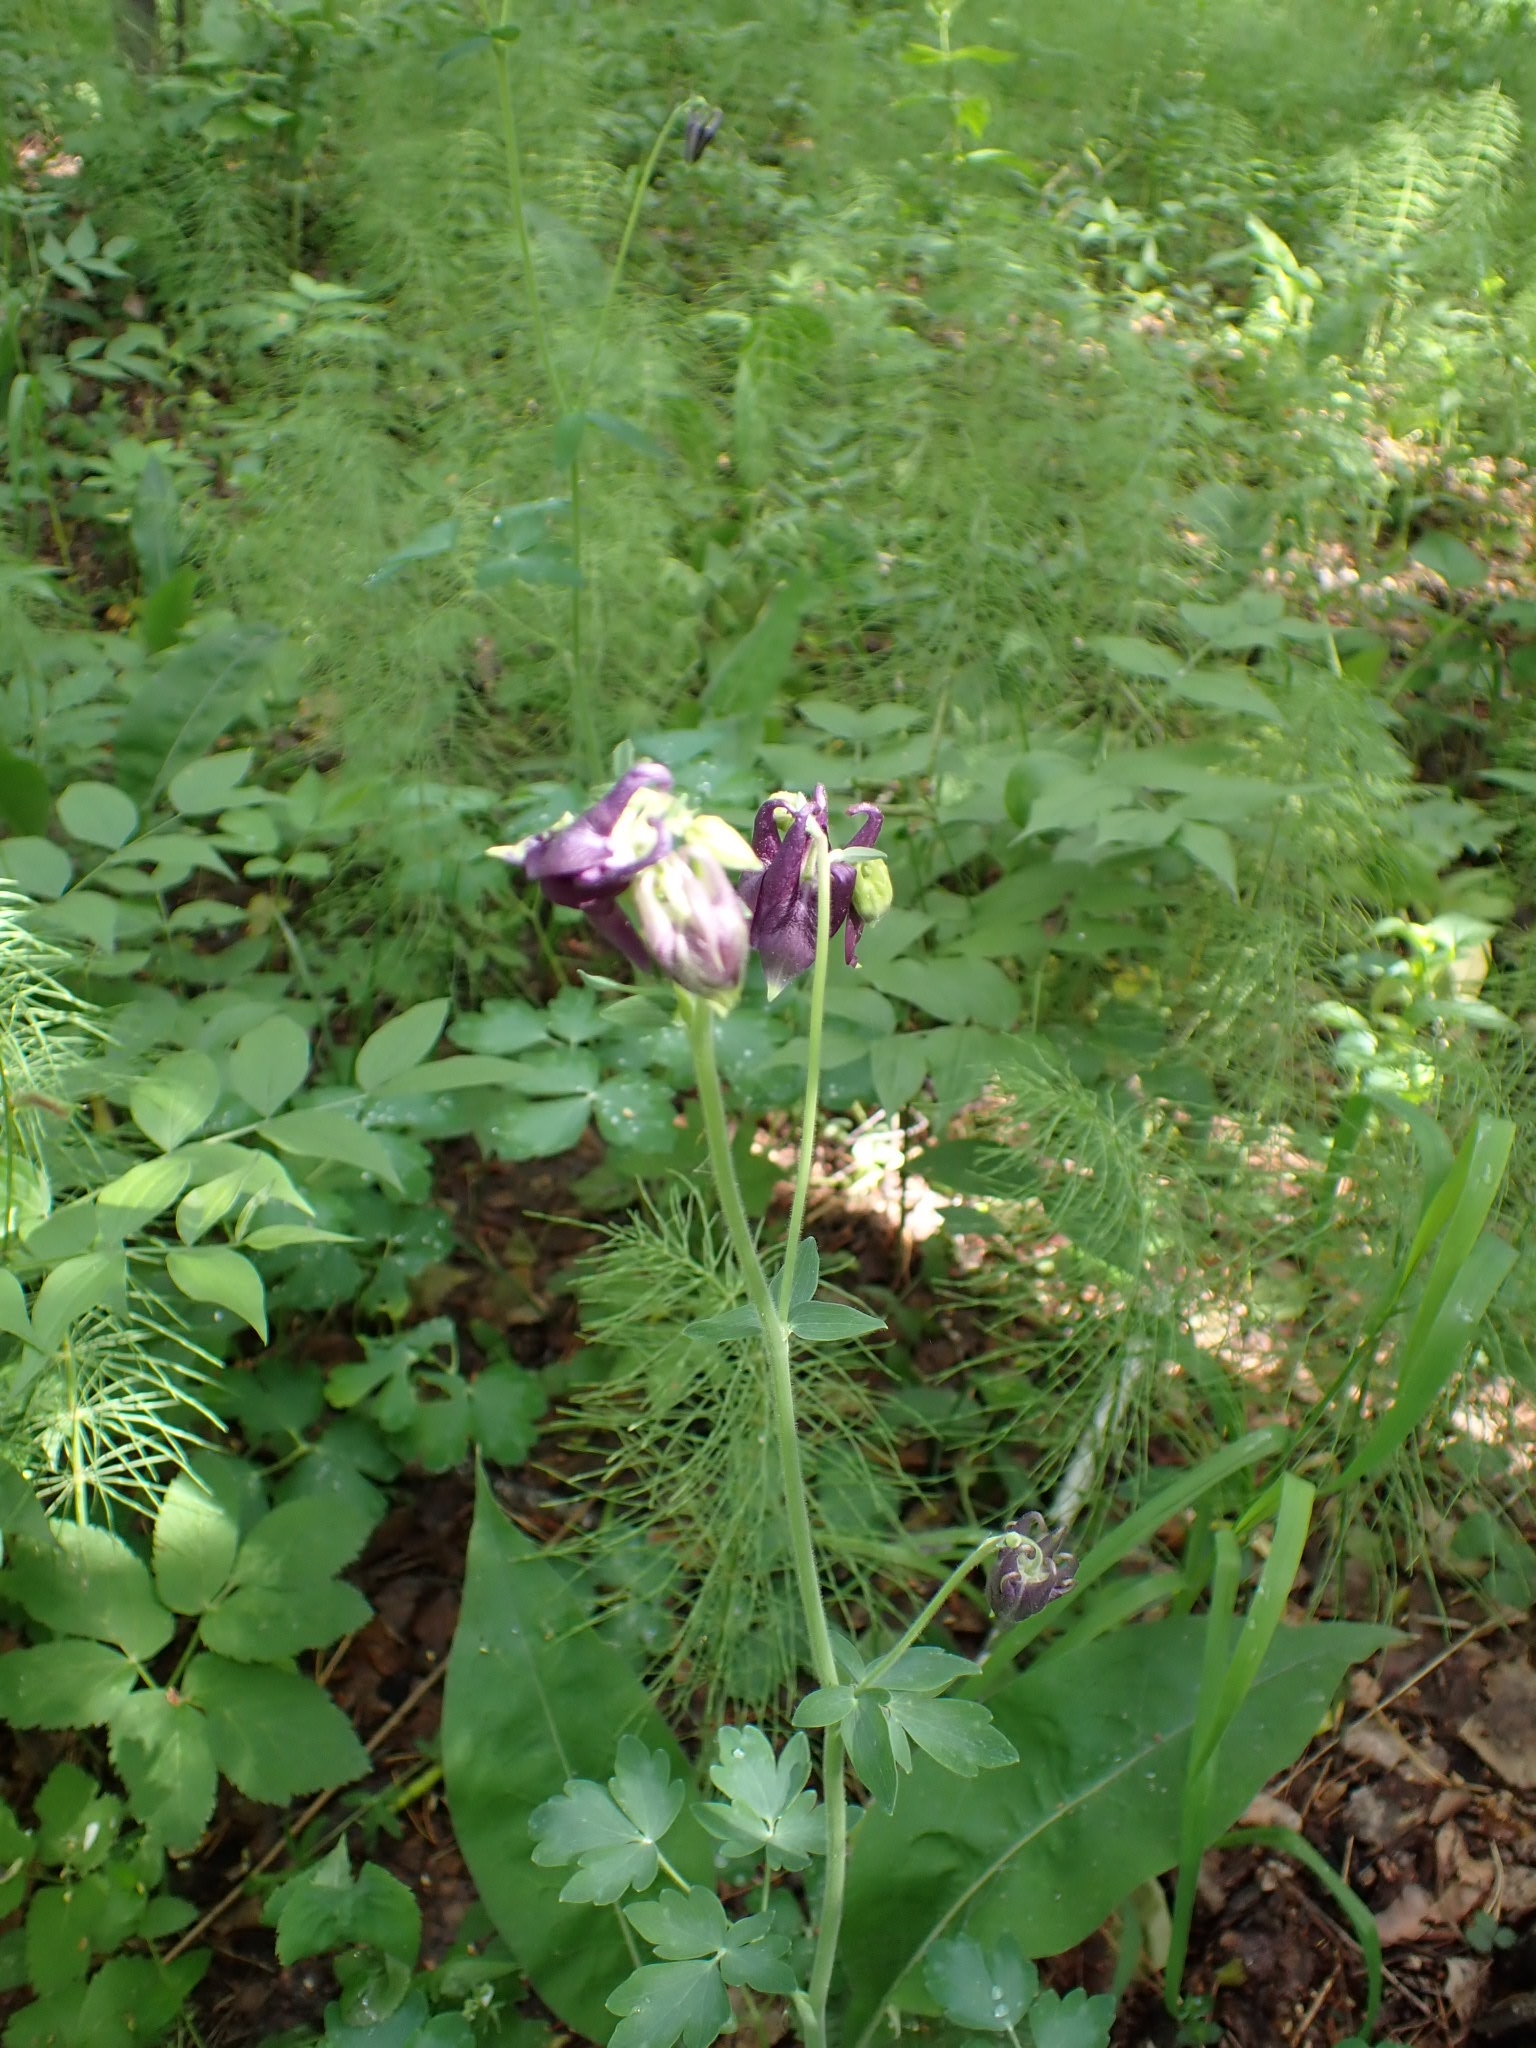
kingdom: Plantae
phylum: Tracheophyta
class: Magnoliopsida
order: Ranunculales
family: Ranunculaceae
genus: Aquilegia
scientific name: Aquilegia vulgaris
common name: Columbine
